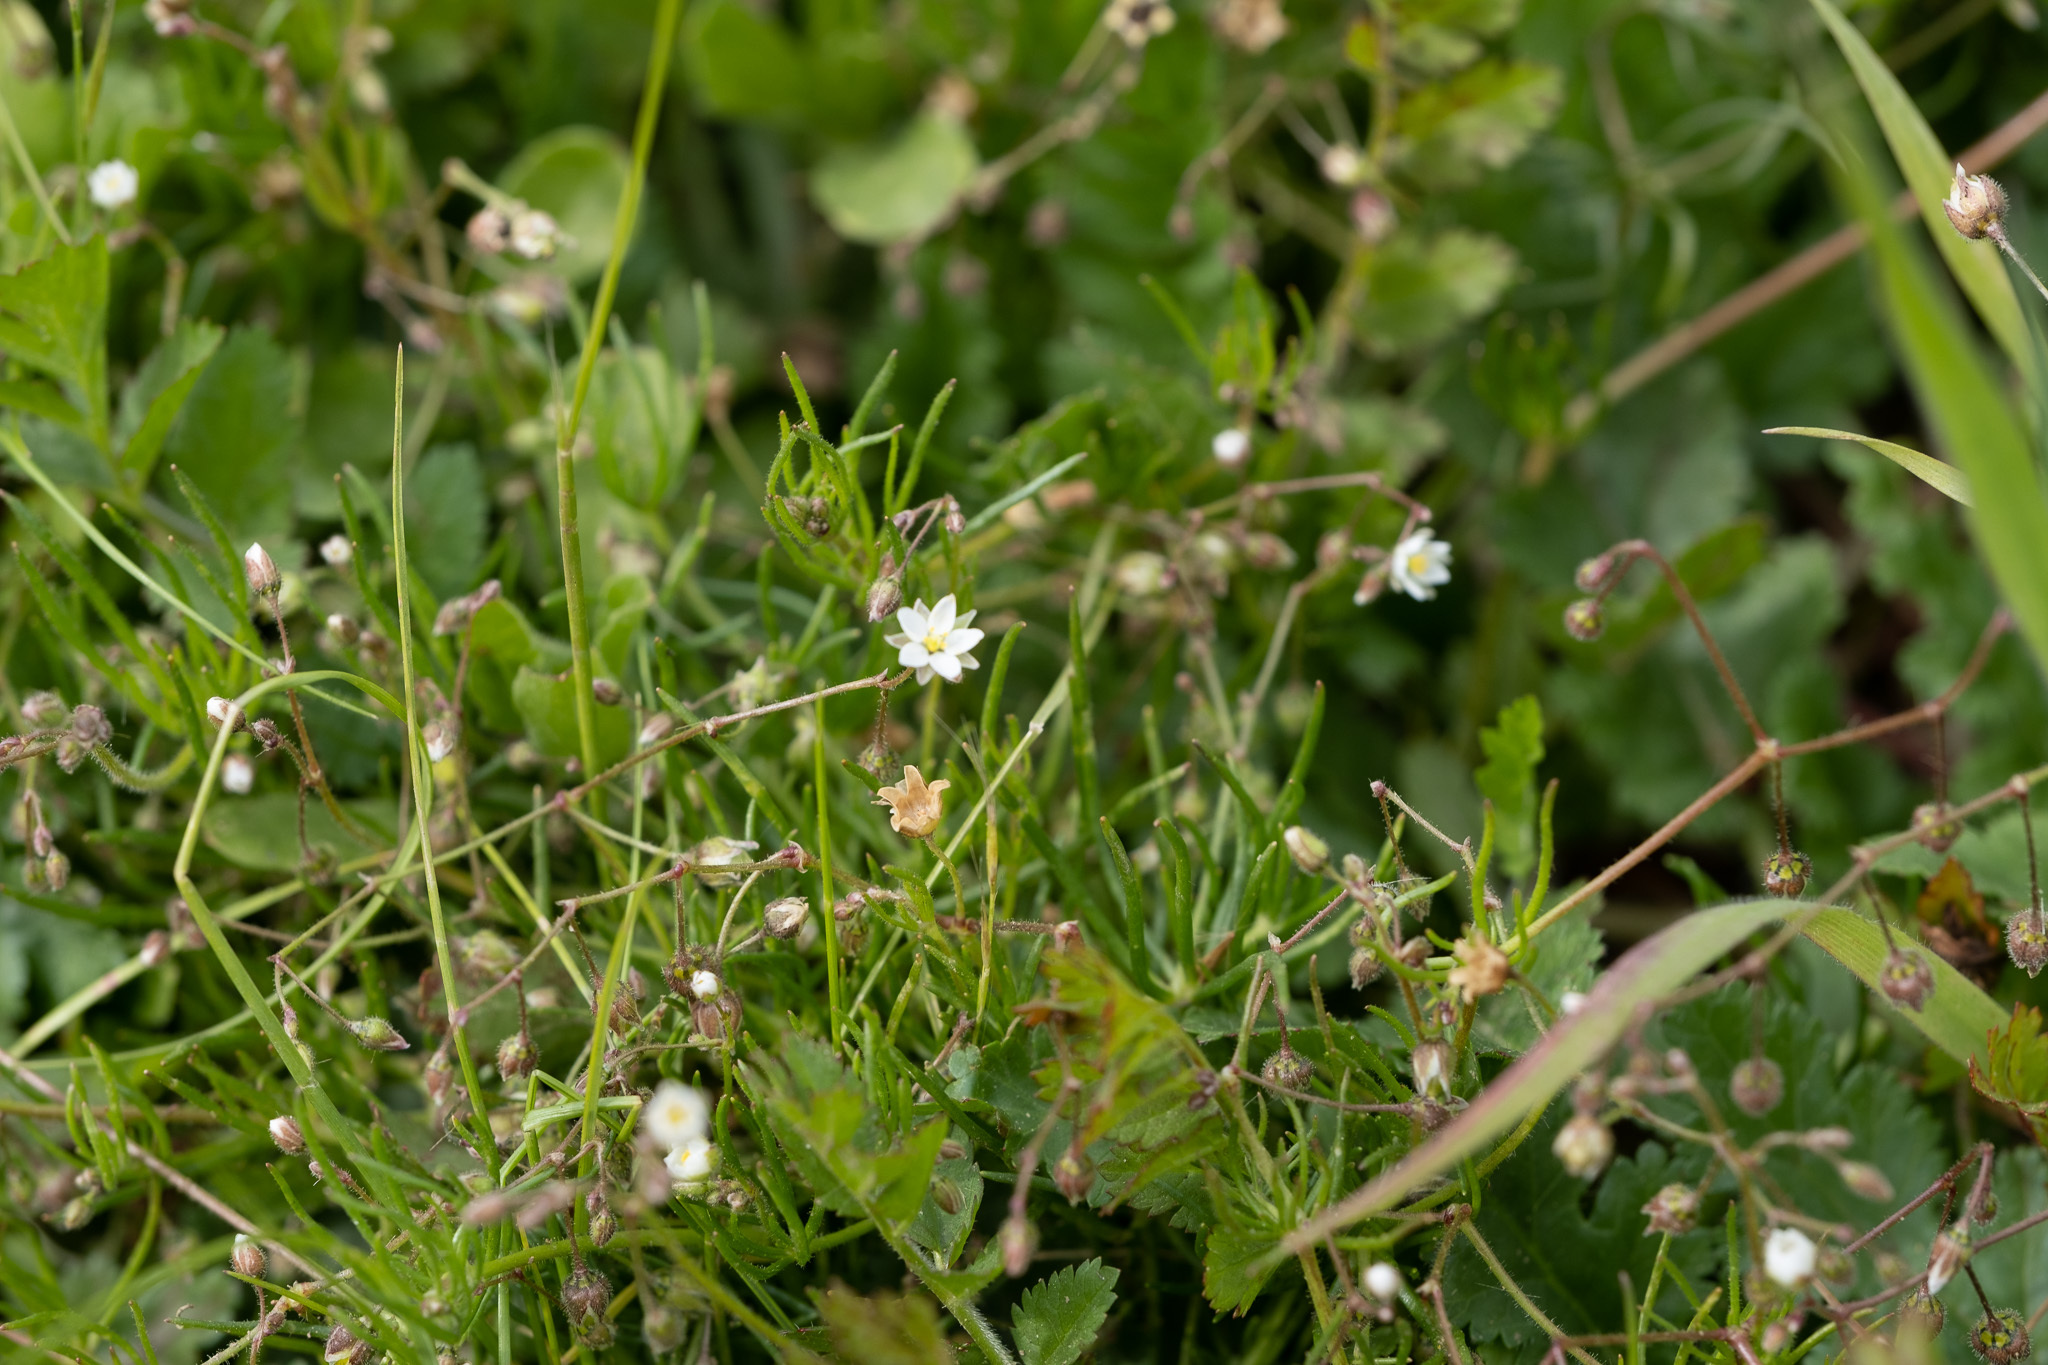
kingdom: Plantae
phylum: Tracheophyta
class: Magnoliopsida
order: Caryophyllales
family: Caryophyllaceae
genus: Spergula
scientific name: Spergula arvensis
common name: Corn spurrey
